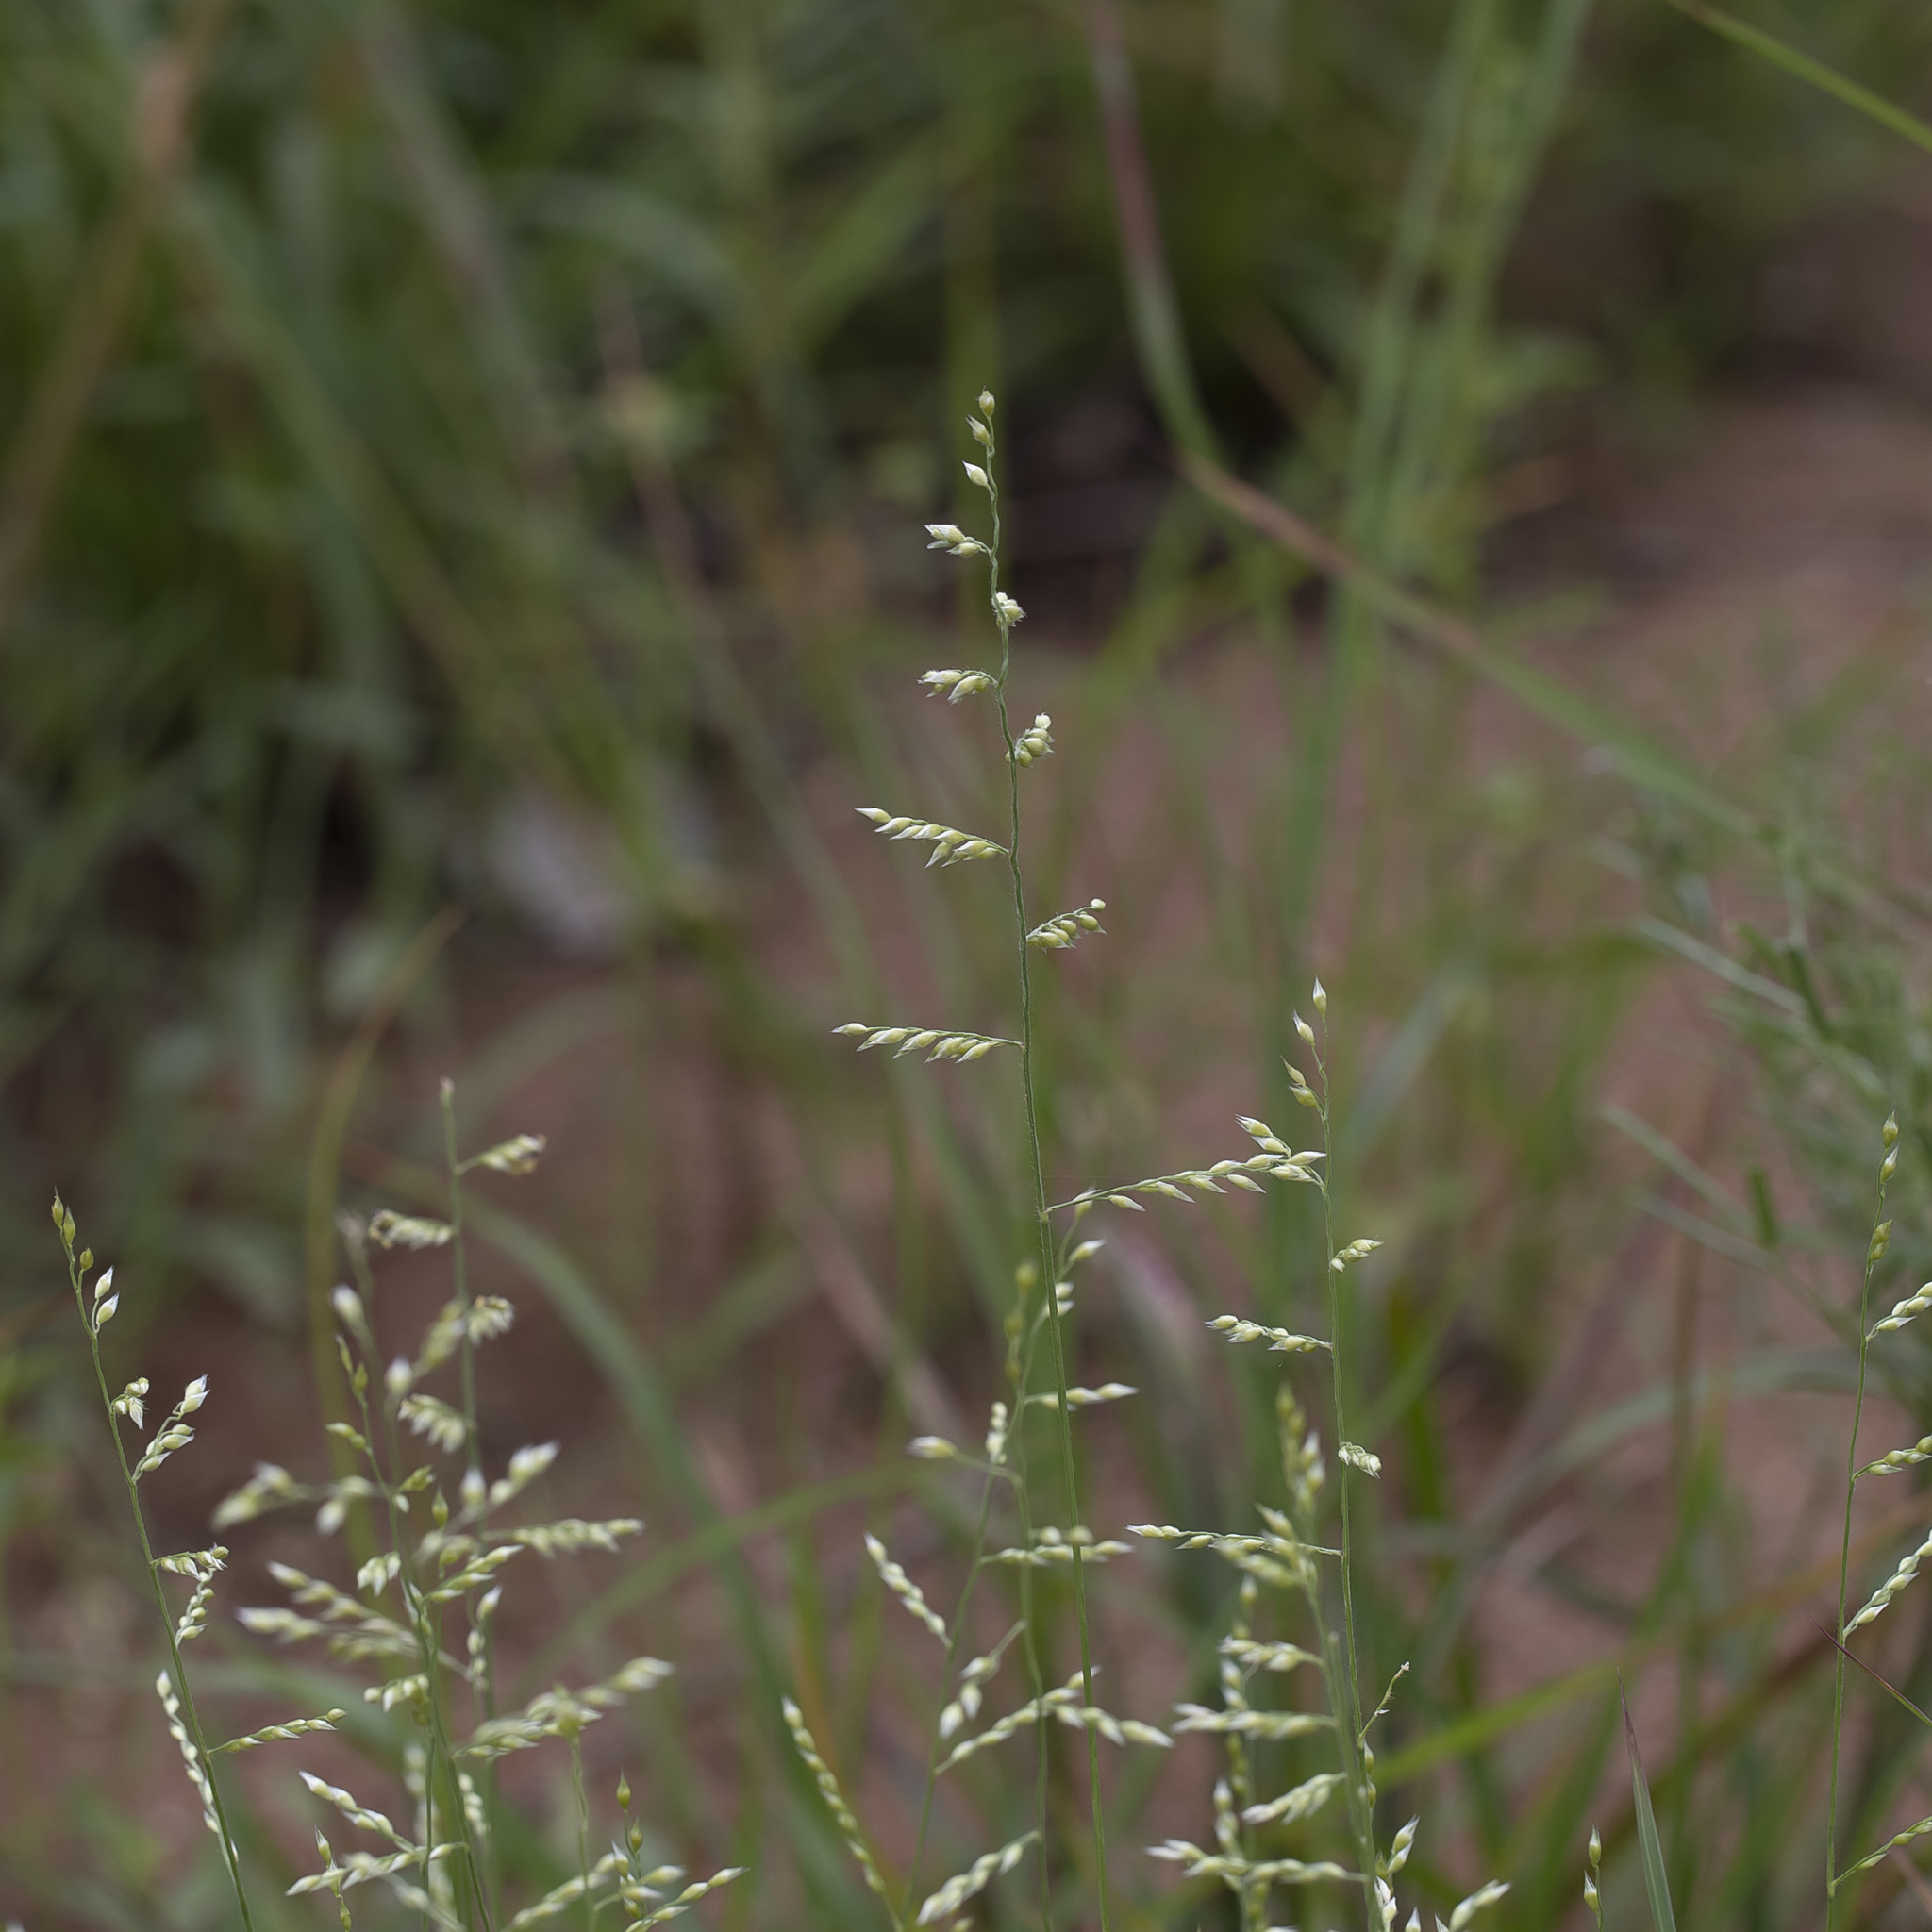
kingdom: Plantae
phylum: Tracheophyta
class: Liliopsida
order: Poales
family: Poaceae
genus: Urochloa
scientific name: Urochloa holosericea
